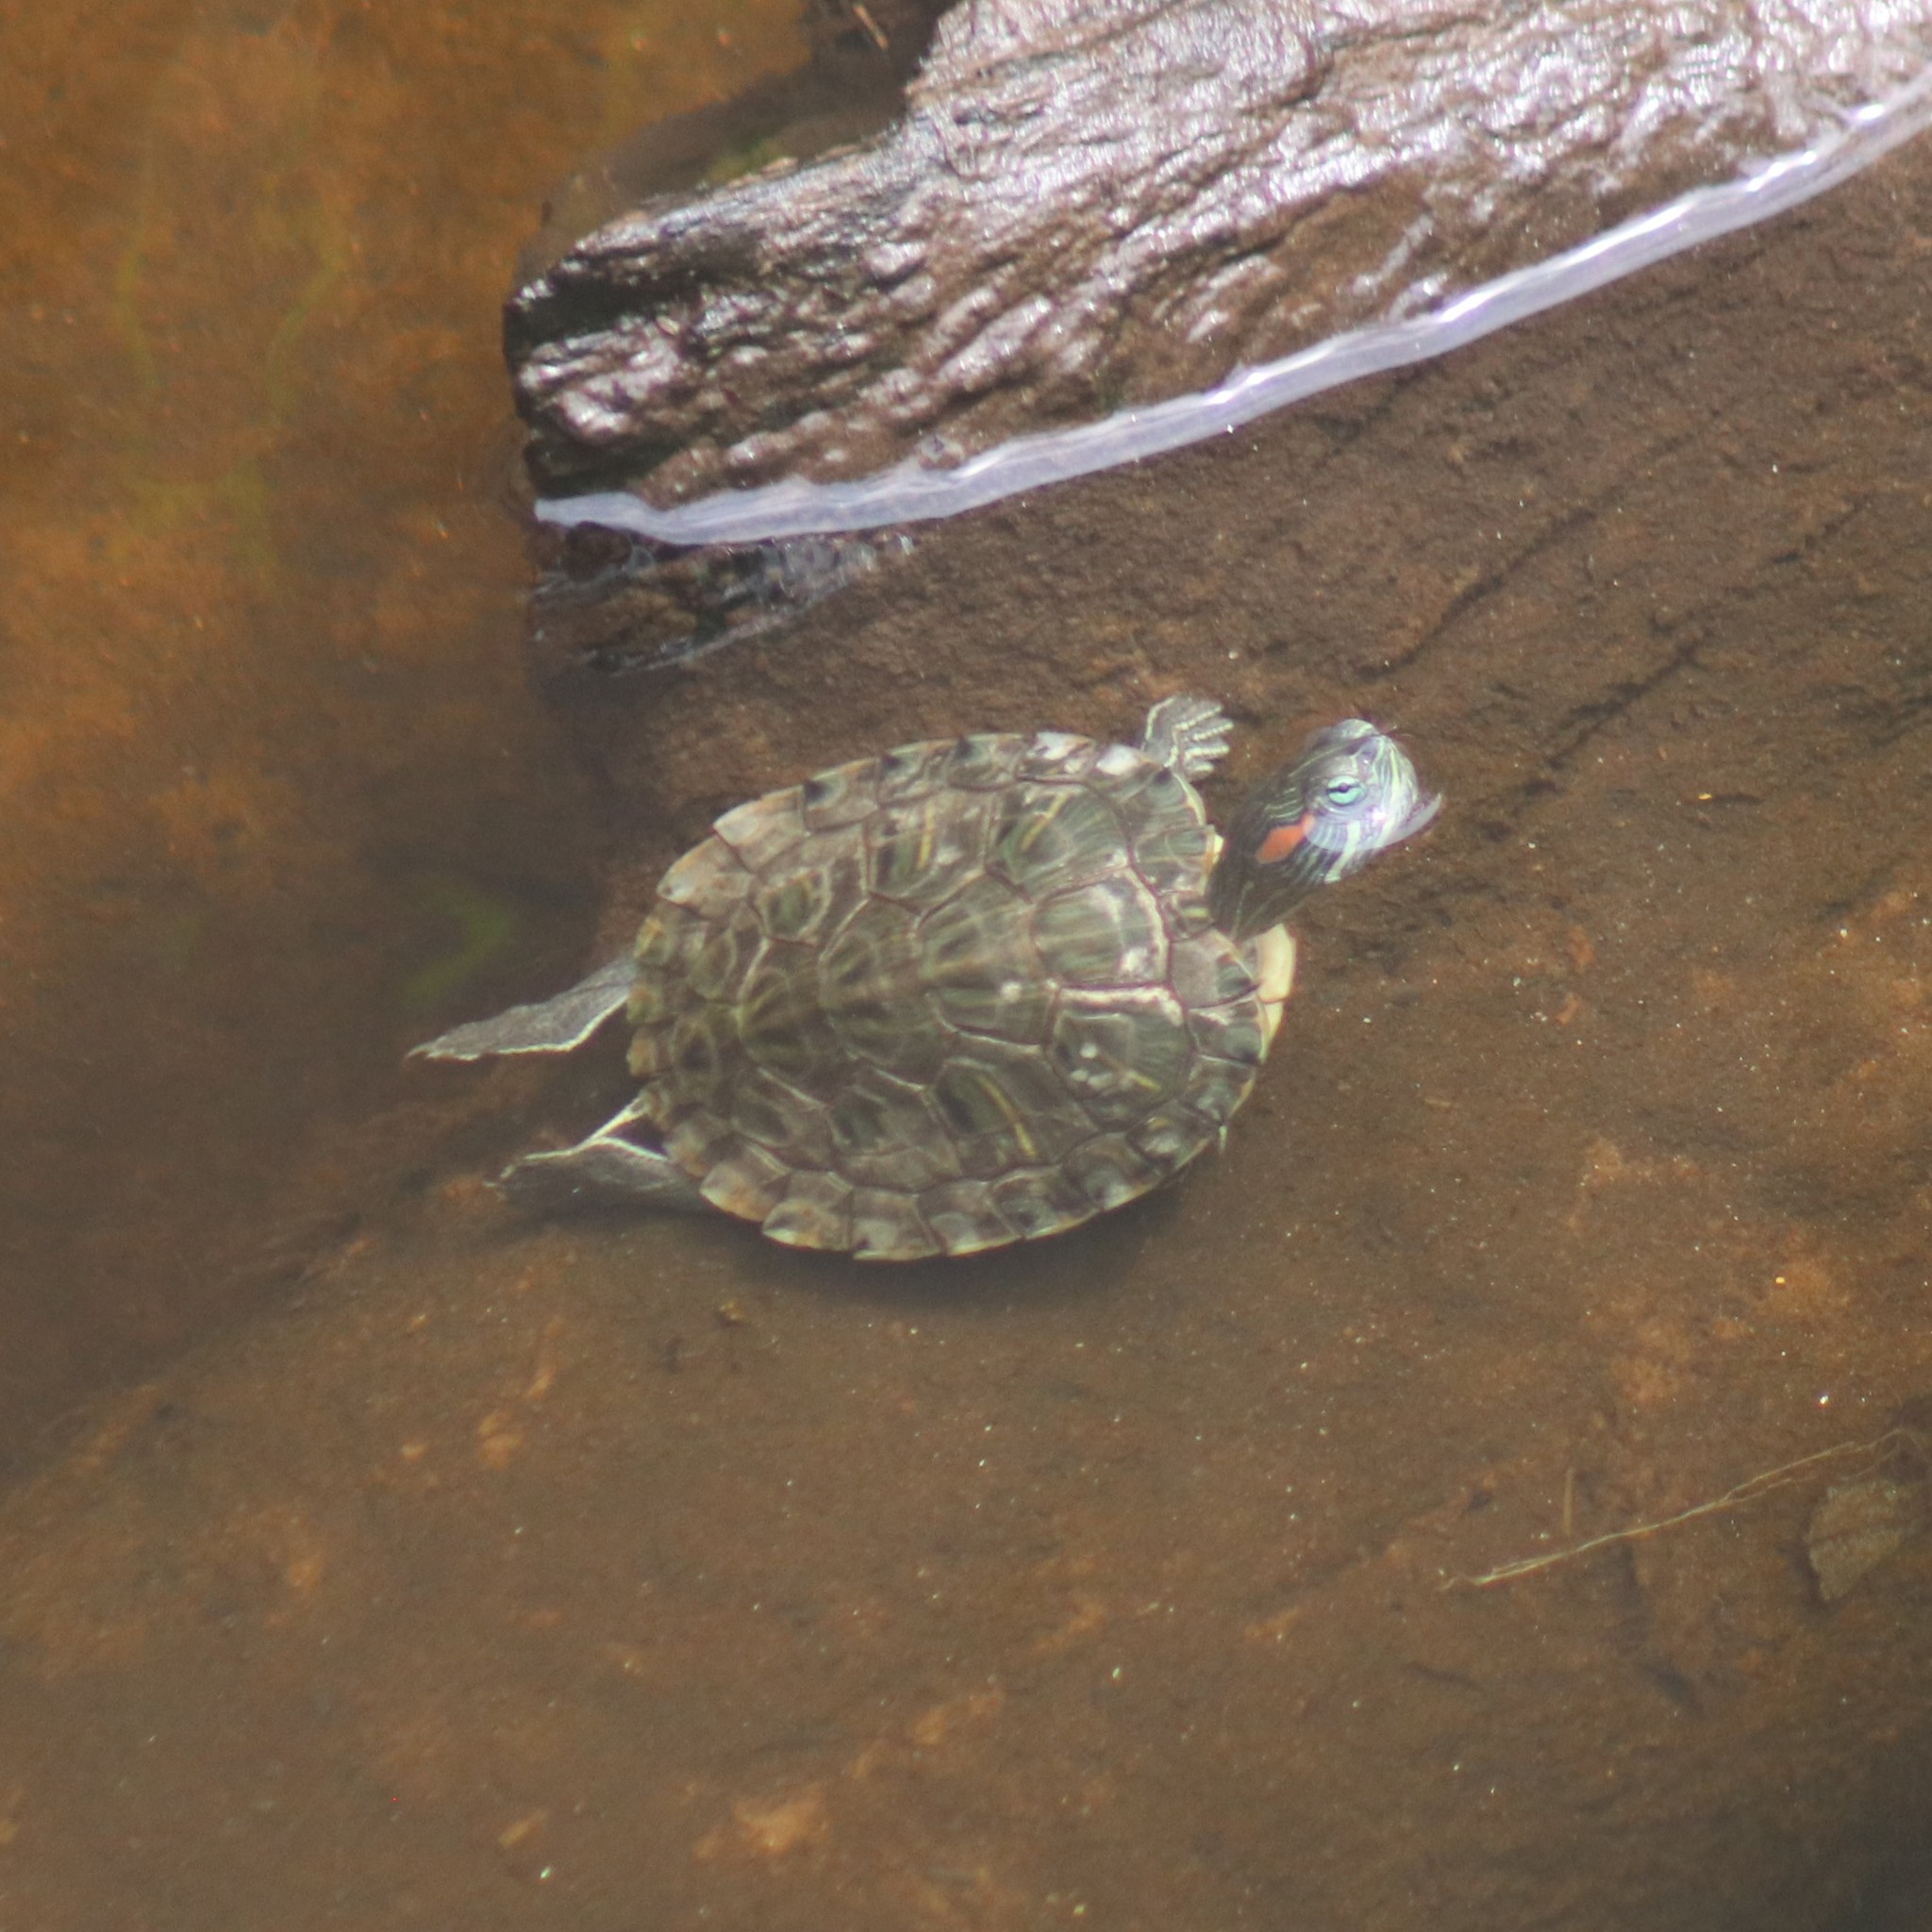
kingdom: Animalia
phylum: Chordata
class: Testudines
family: Emydidae
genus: Trachemys
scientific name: Trachemys scripta
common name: Slider
